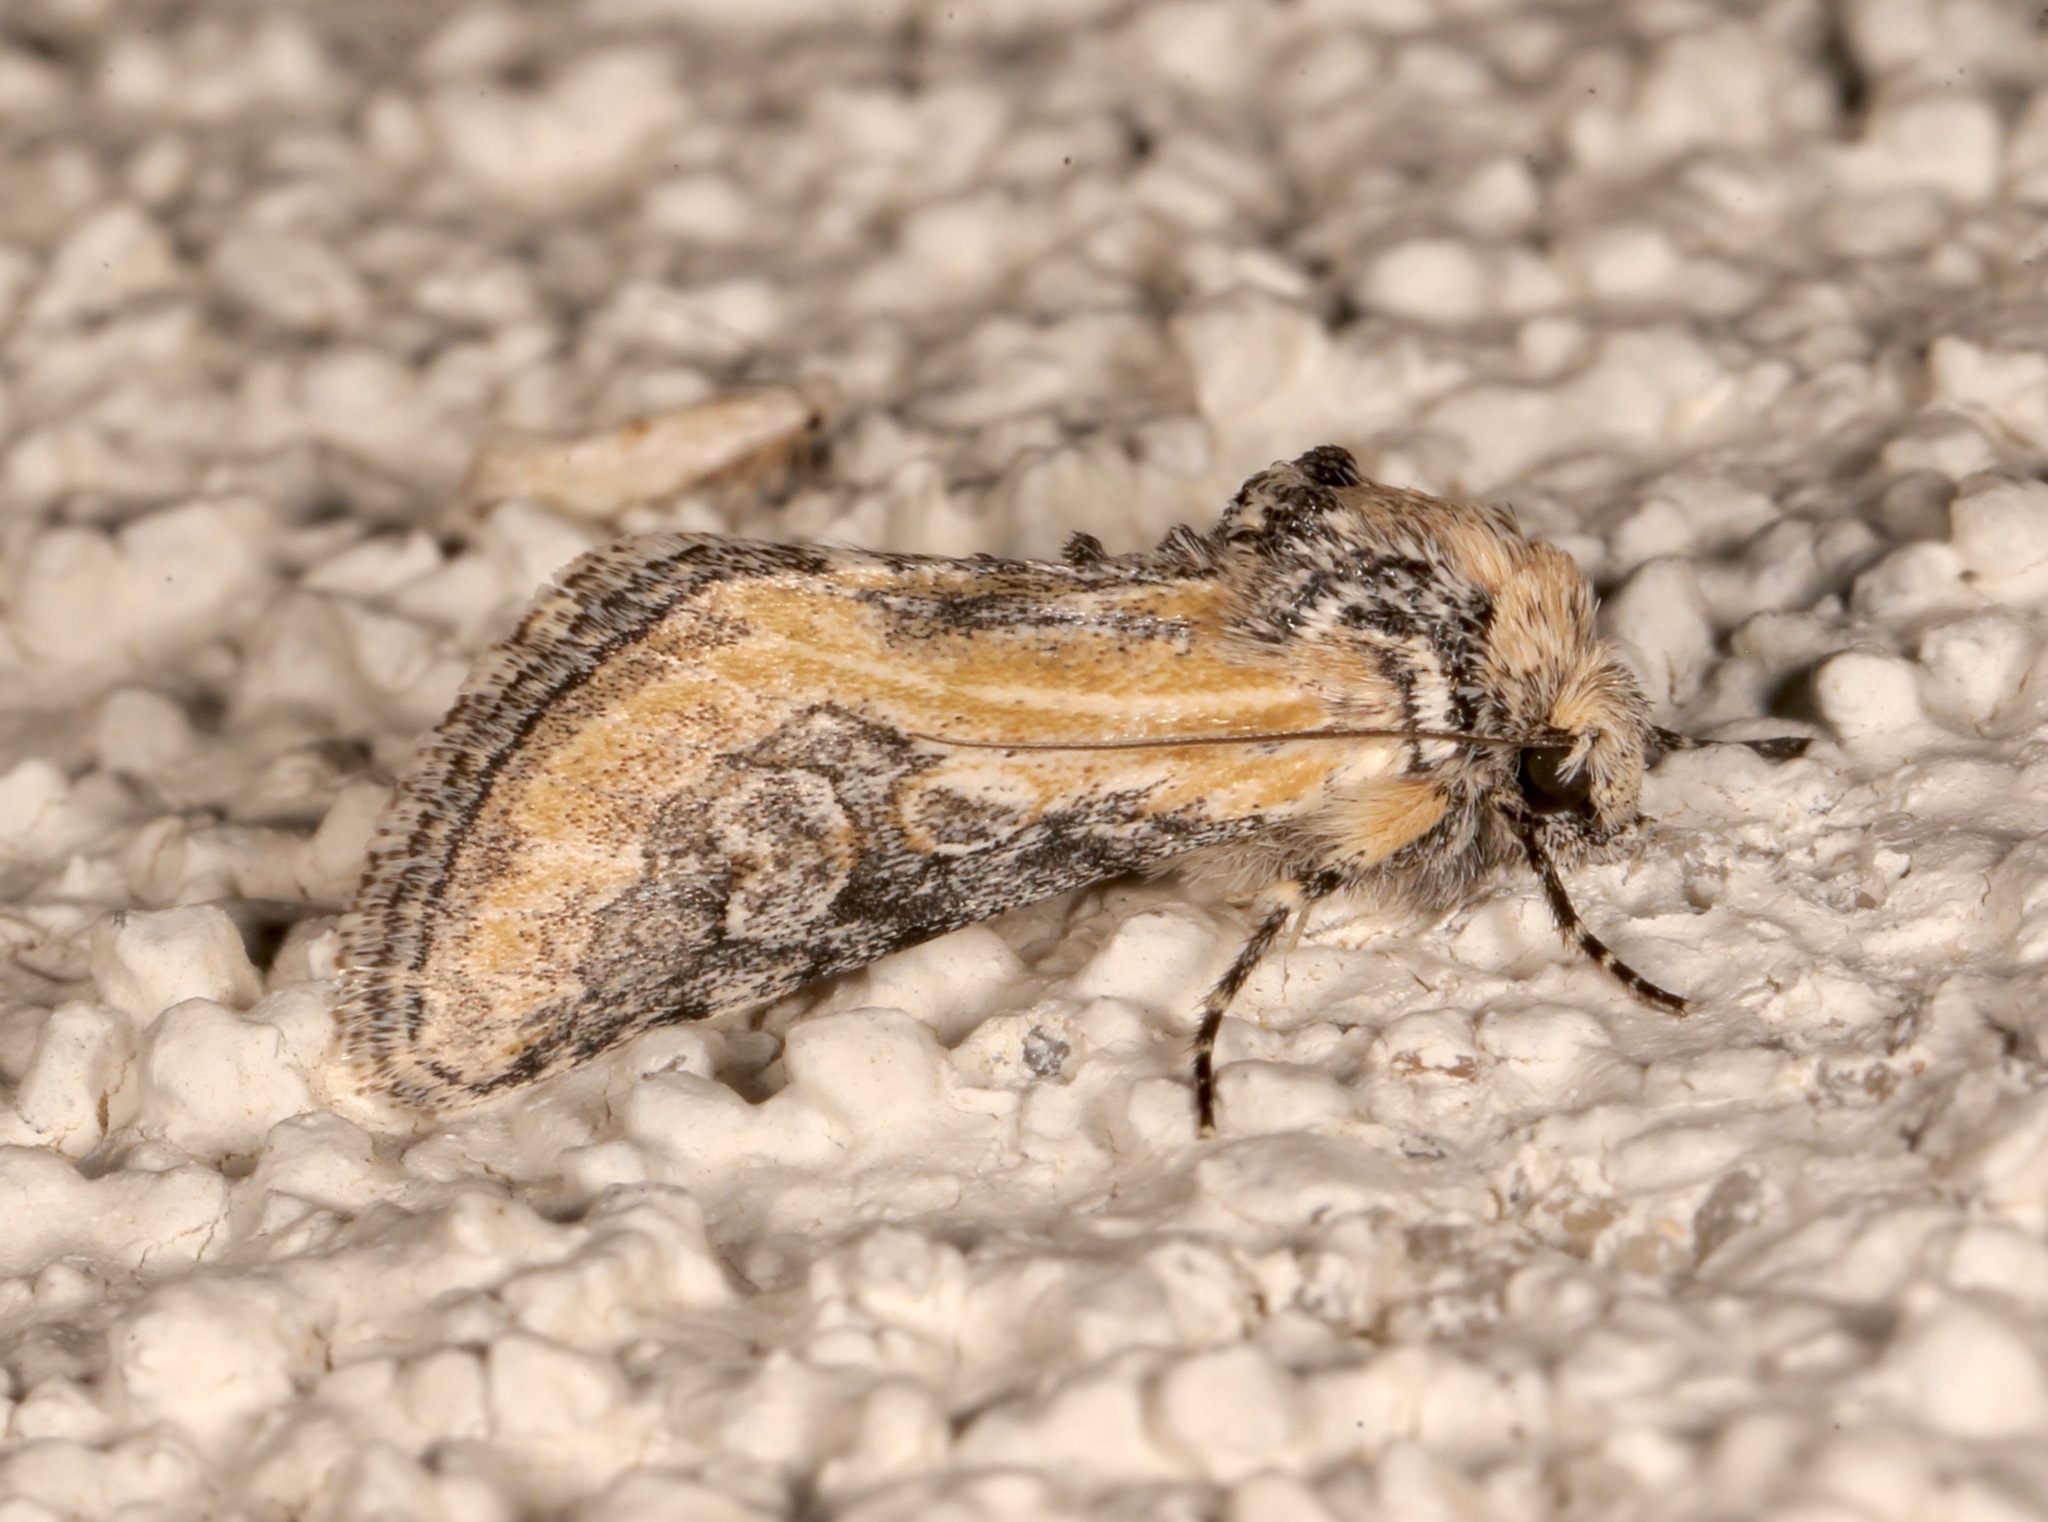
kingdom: Animalia
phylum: Arthropoda
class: Insecta
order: Lepidoptera
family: Noctuidae
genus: Crimona
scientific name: Crimona pallimedia
